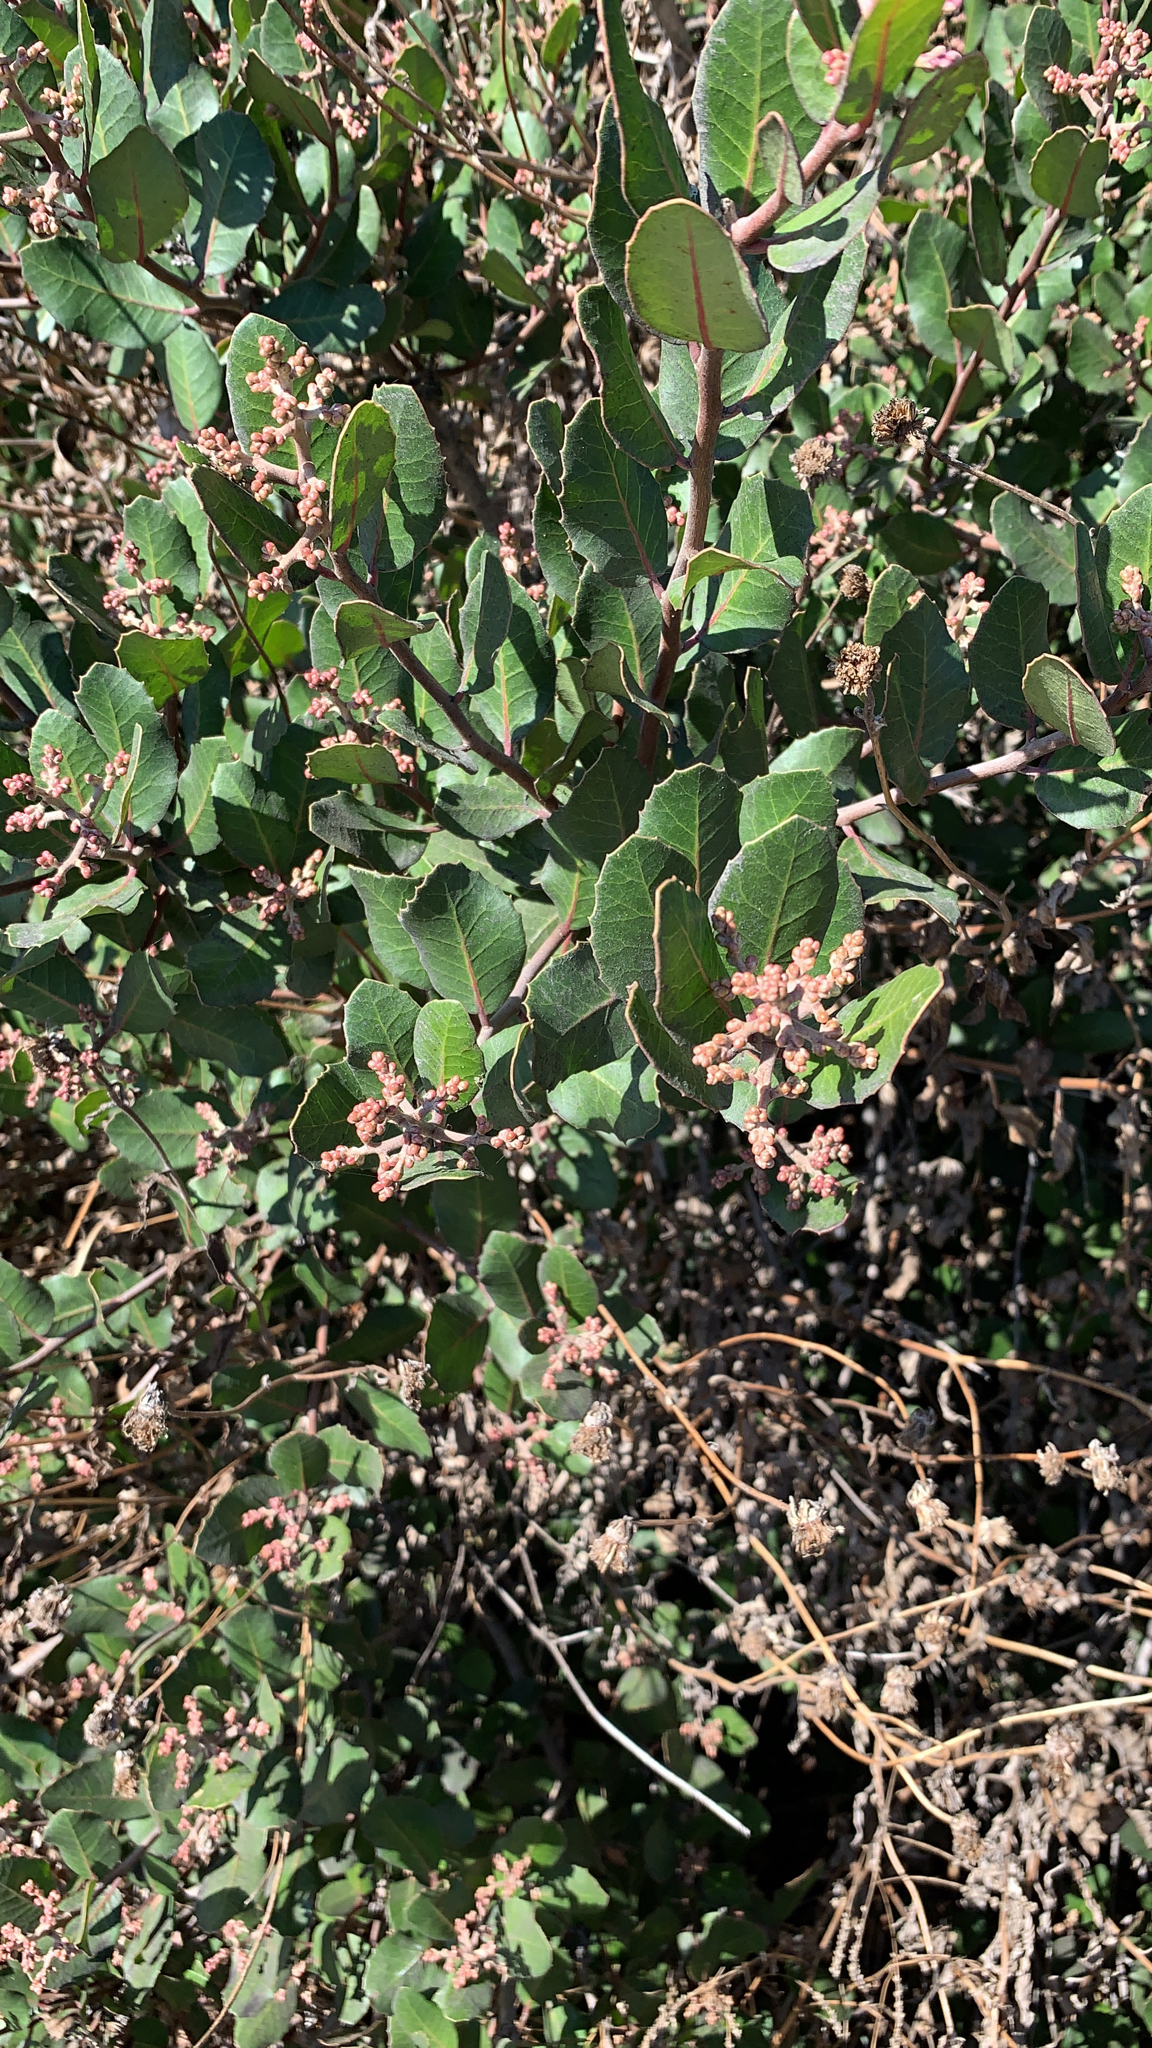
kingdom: Plantae
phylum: Tracheophyta
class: Magnoliopsida
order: Sapindales
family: Anacardiaceae
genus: Rhus
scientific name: Rhus integrifolia
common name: Lemonade sumac
